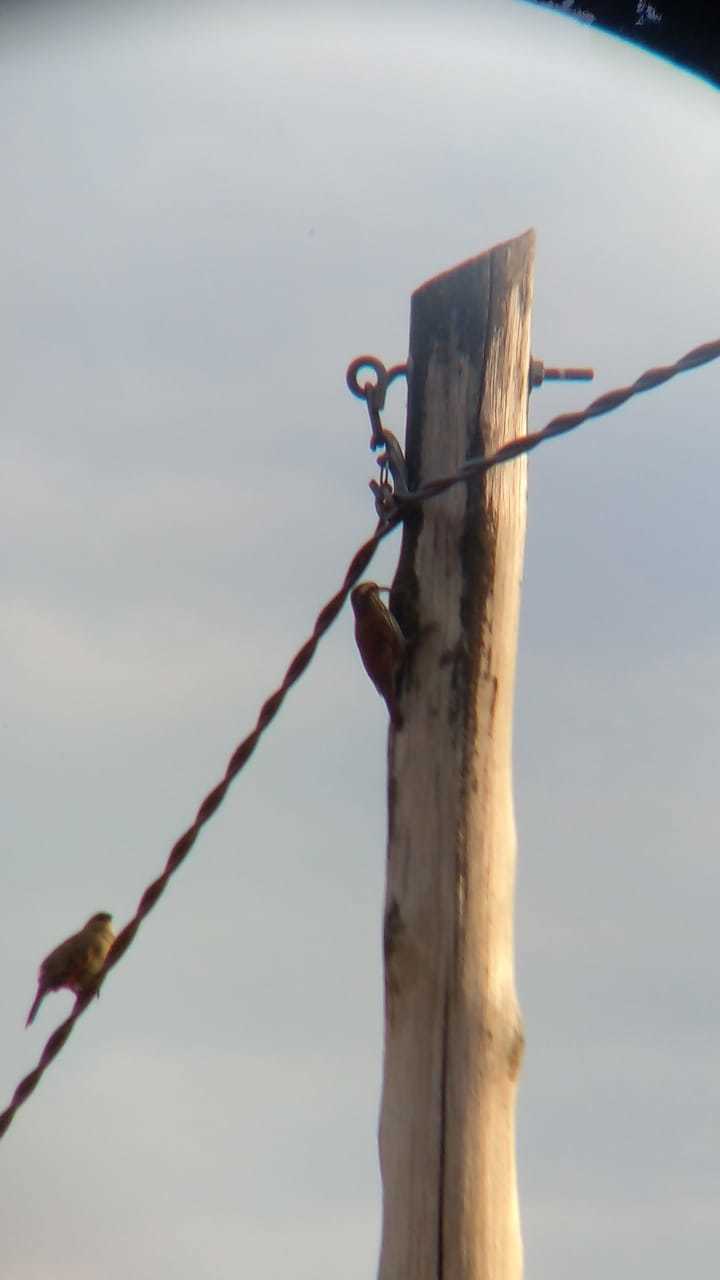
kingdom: Animalia
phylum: Chordata
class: Aves
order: Passeriformes
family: Furnariidae
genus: Lepidocolaptes
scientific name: Lepidocolaptes angustirostris
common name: Narrow-billed woodcreeper
